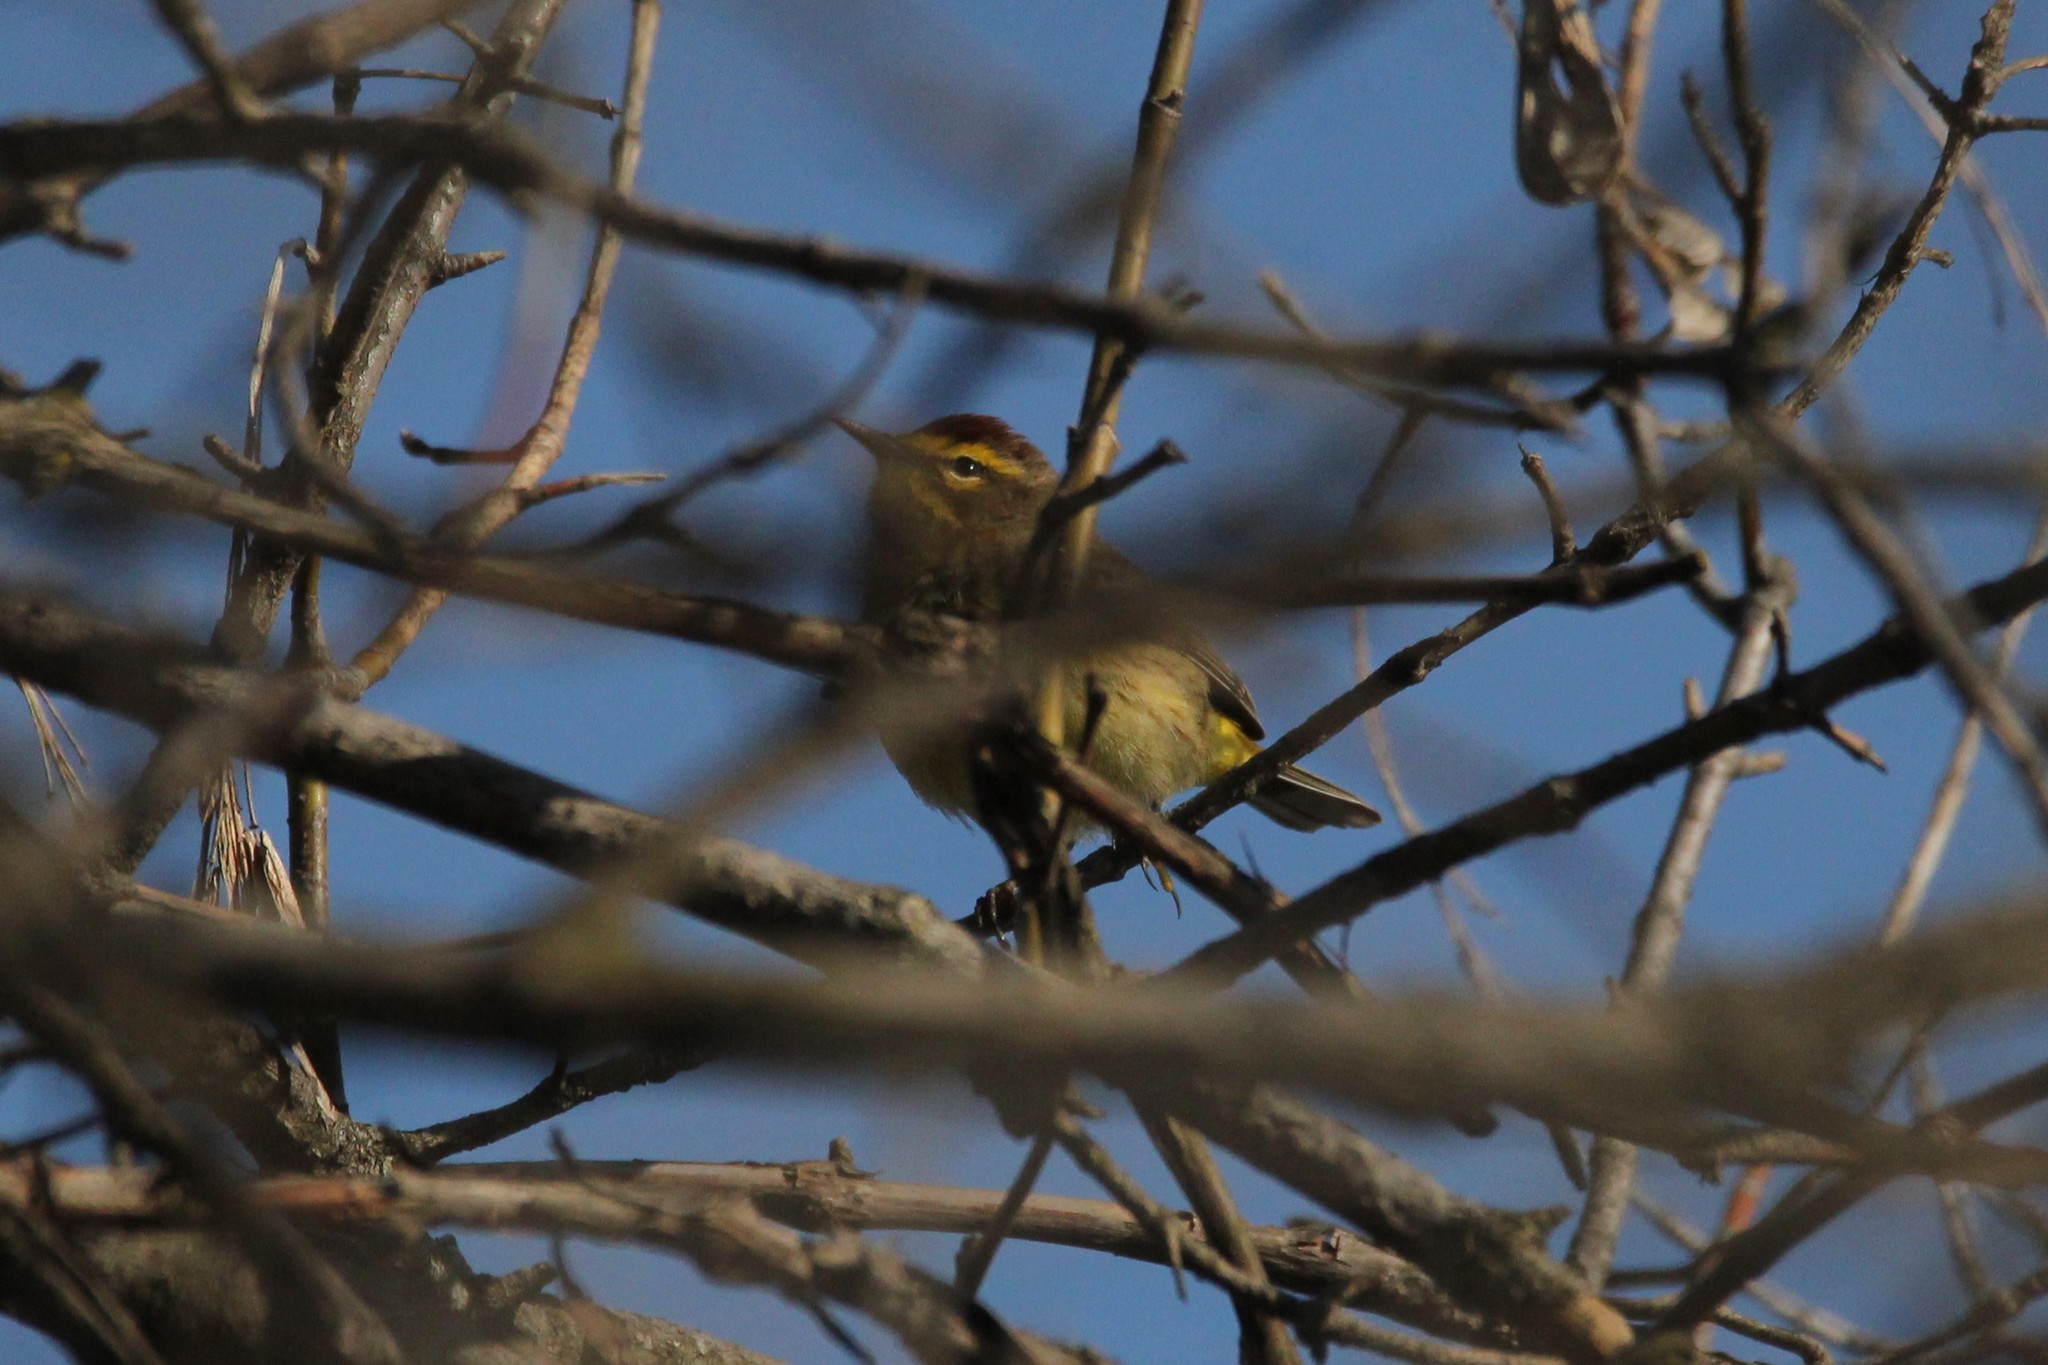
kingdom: Animalia
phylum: Chordata
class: Aves
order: Passeriformes
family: Parulidae
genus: Setophaga
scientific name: Setophaga palmarum
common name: Palm warbler
